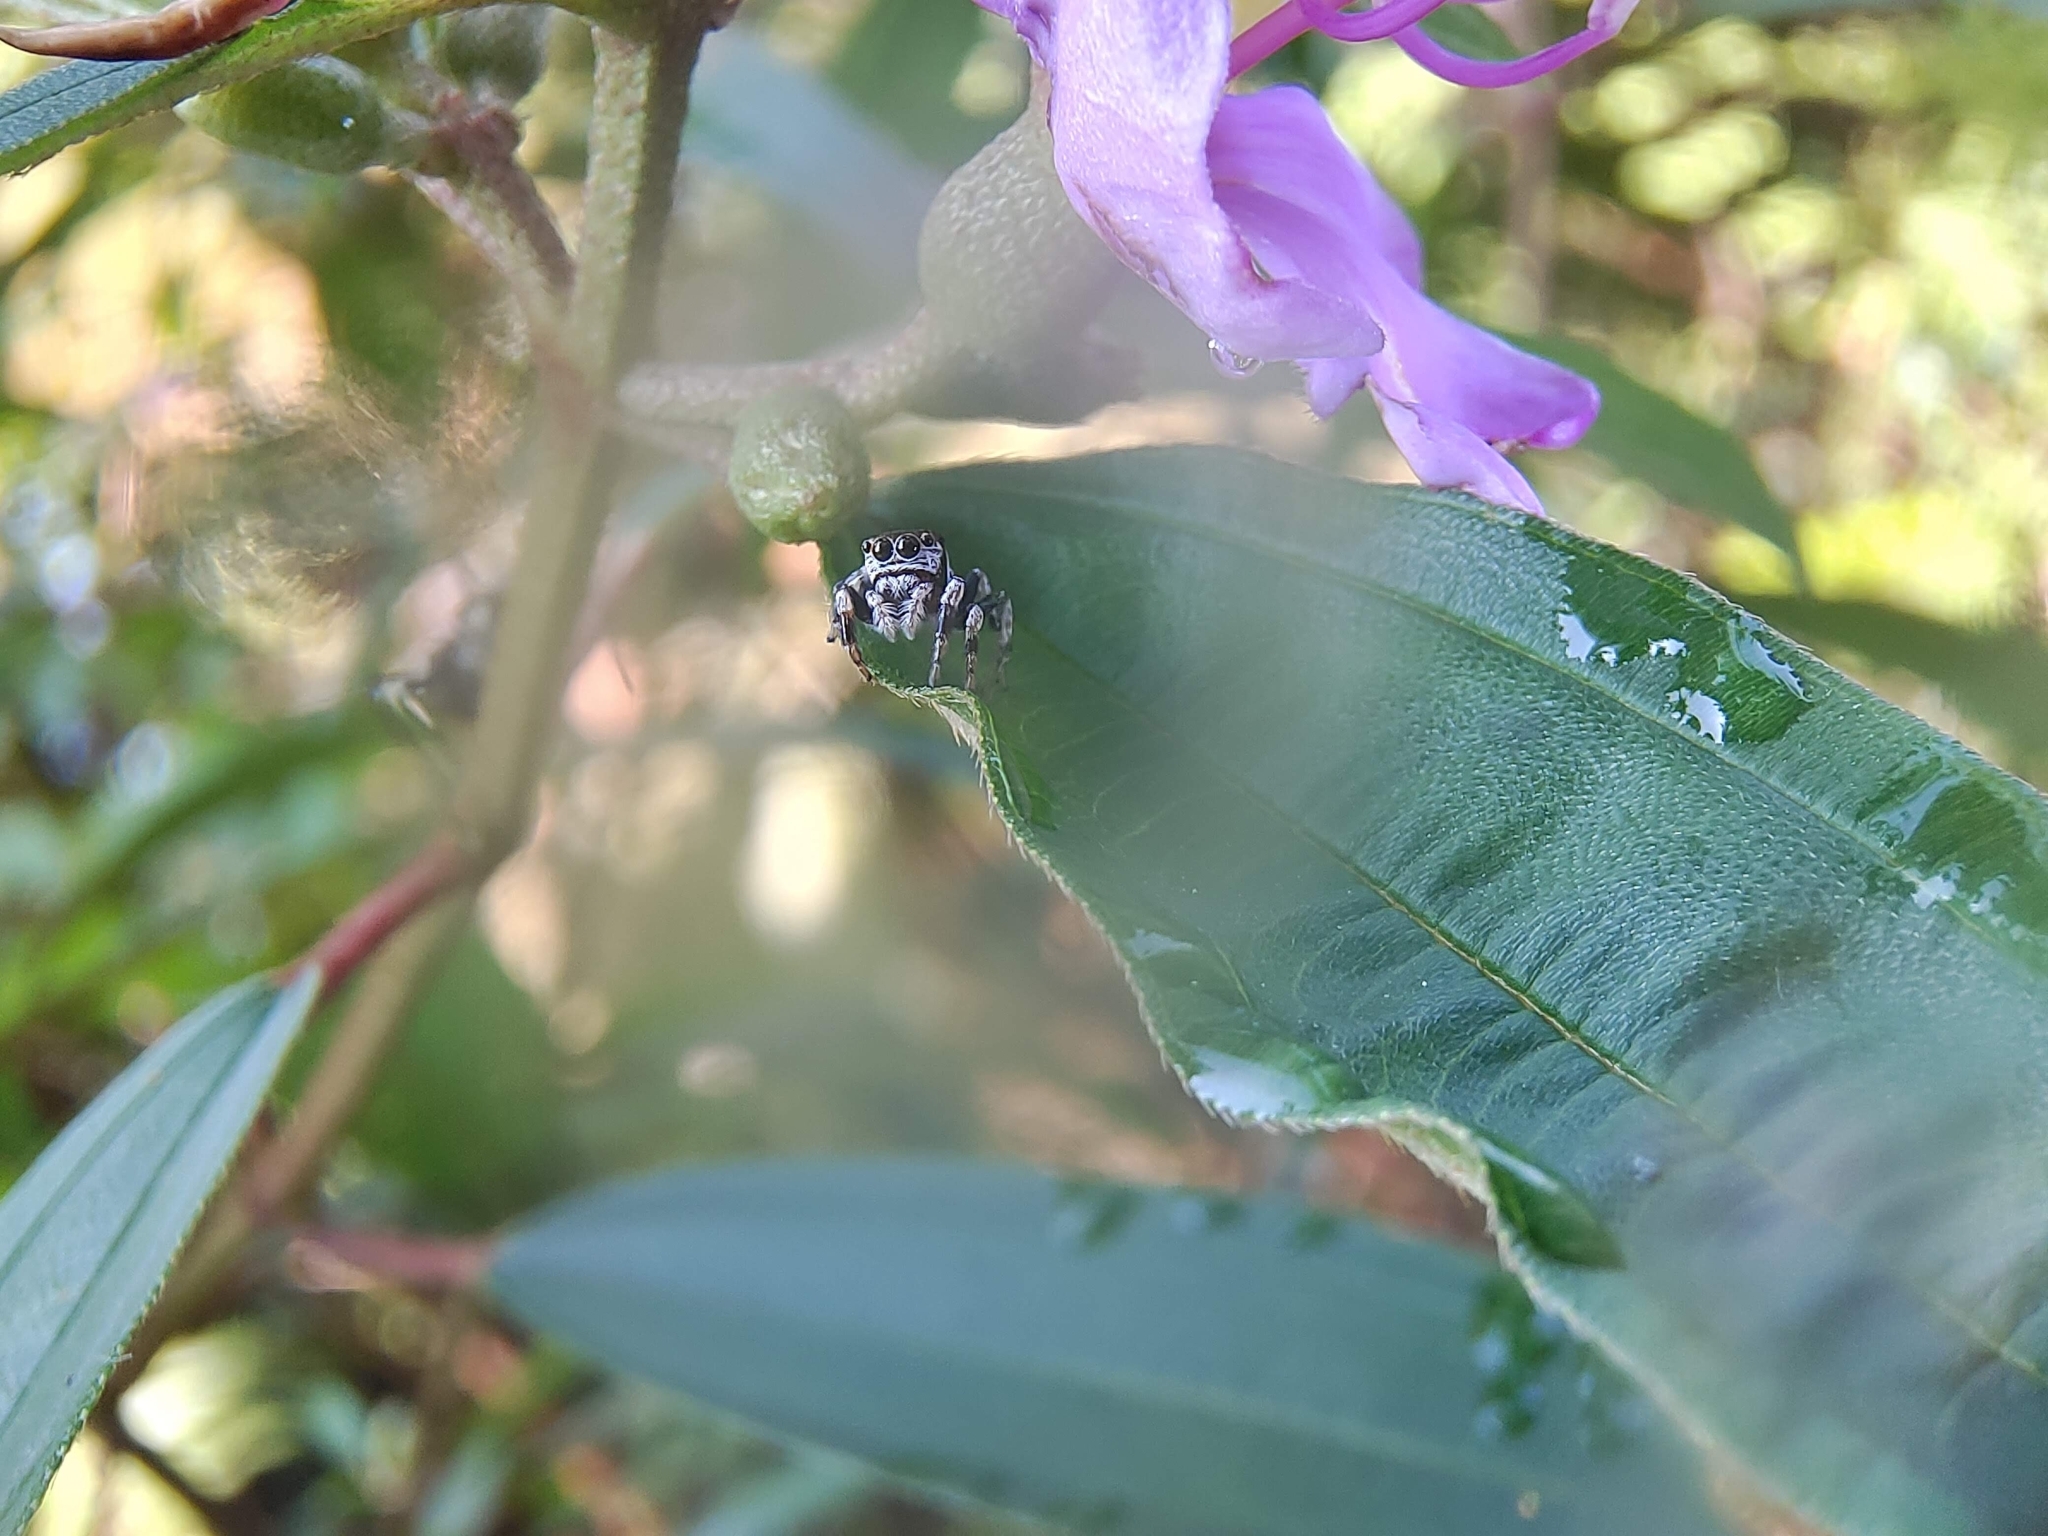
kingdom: Animalia
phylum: Arthropoda
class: Arachnida
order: Araneae
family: Salticidae
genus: Ptocasius
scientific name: Ptocasius weyersi
